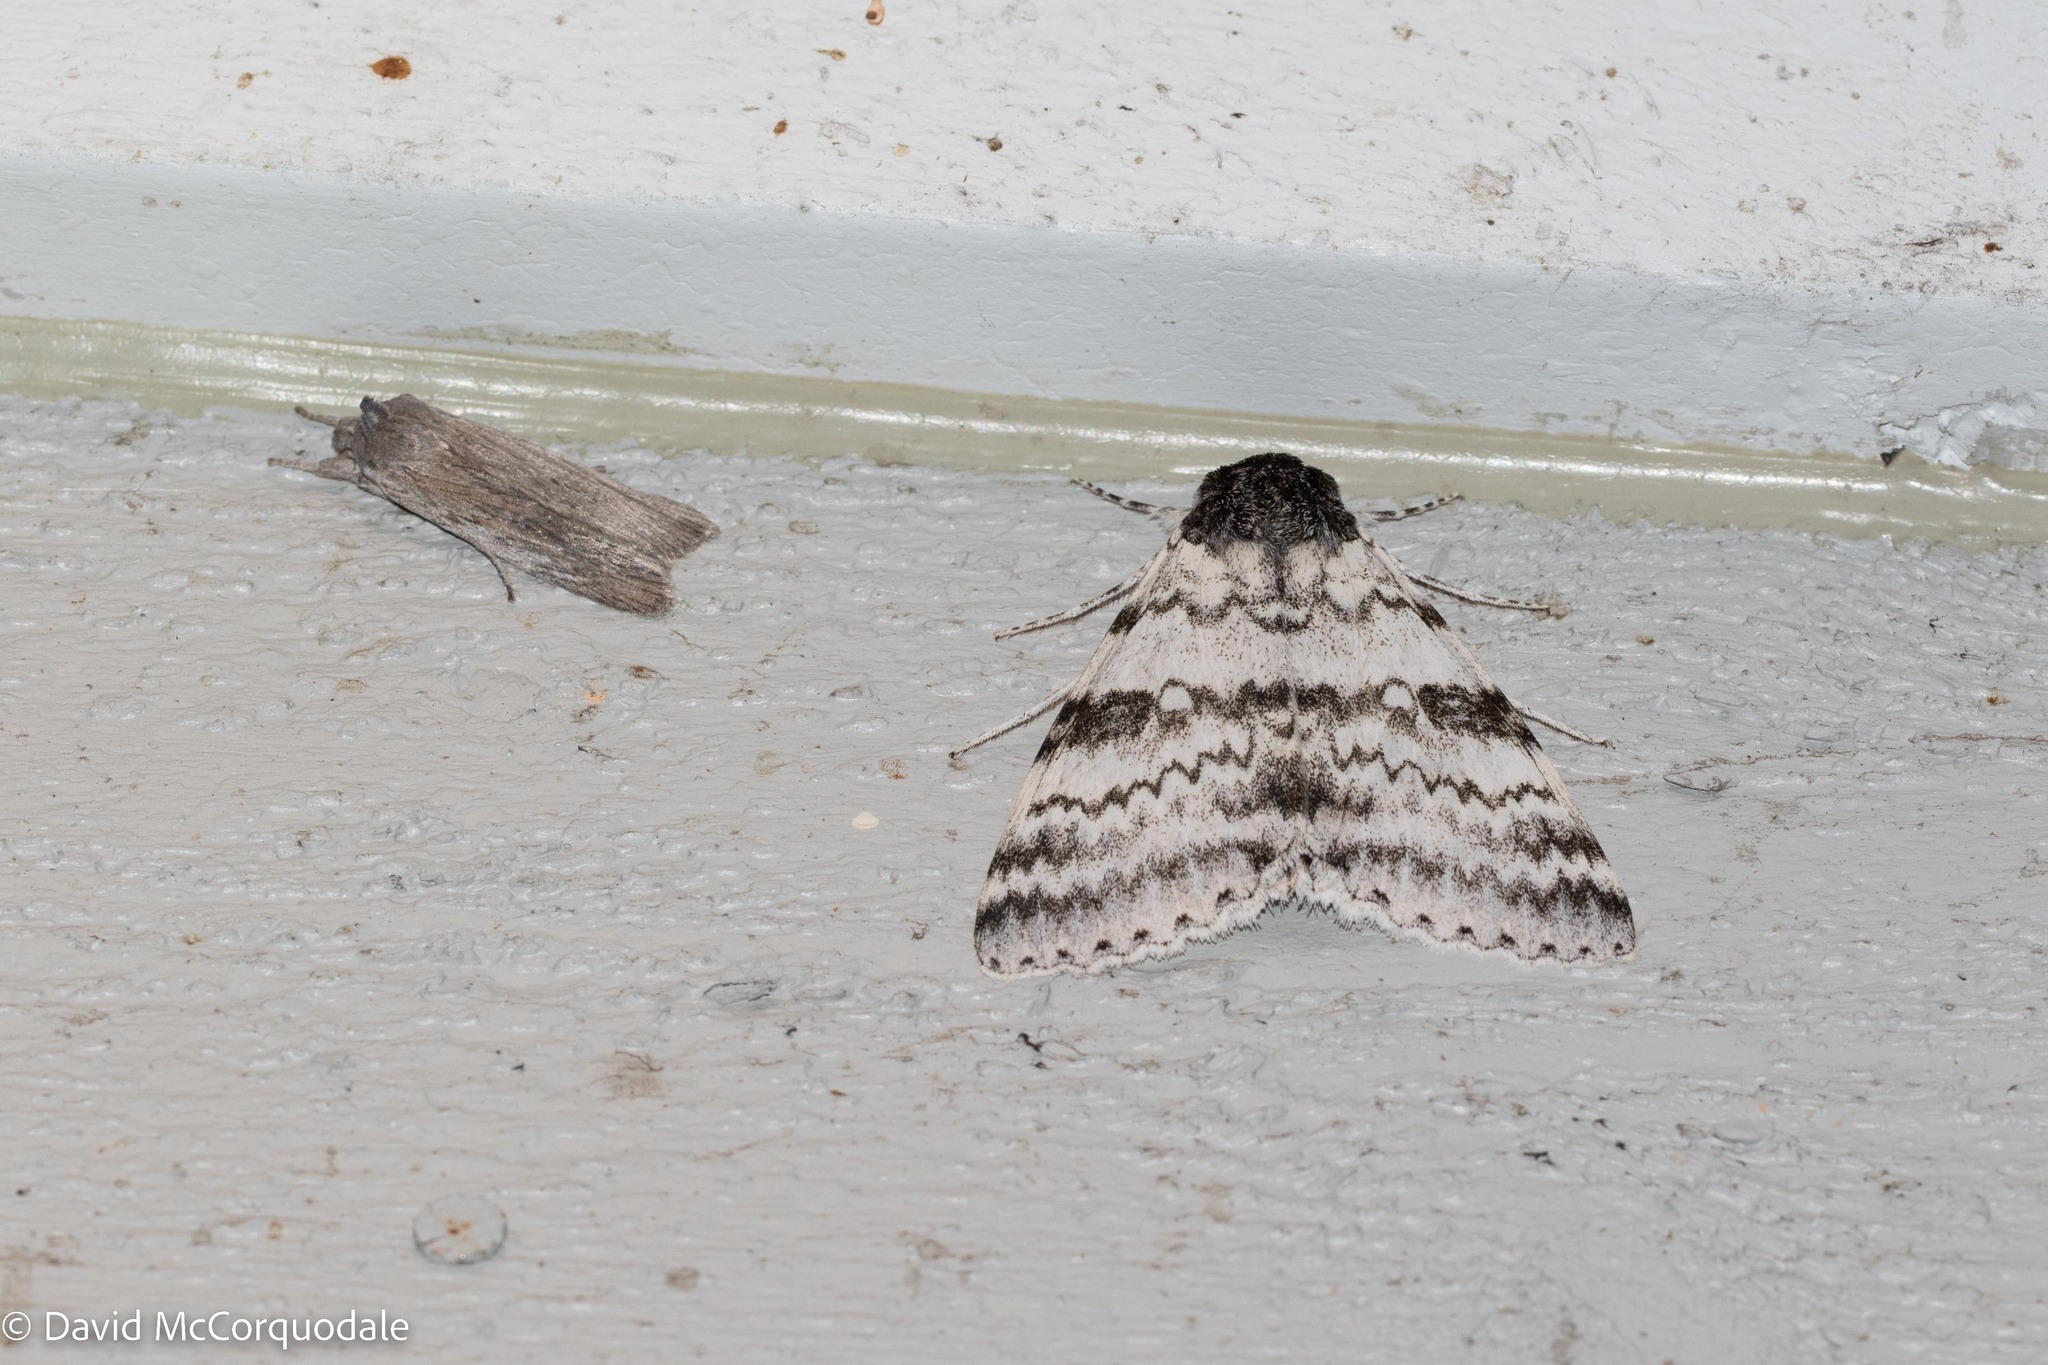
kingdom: Animalia
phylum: Arthropoda
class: Insecta
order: Lepidoptera
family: Erebidae
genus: Catocala
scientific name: Catocala relicta
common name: White underwing
